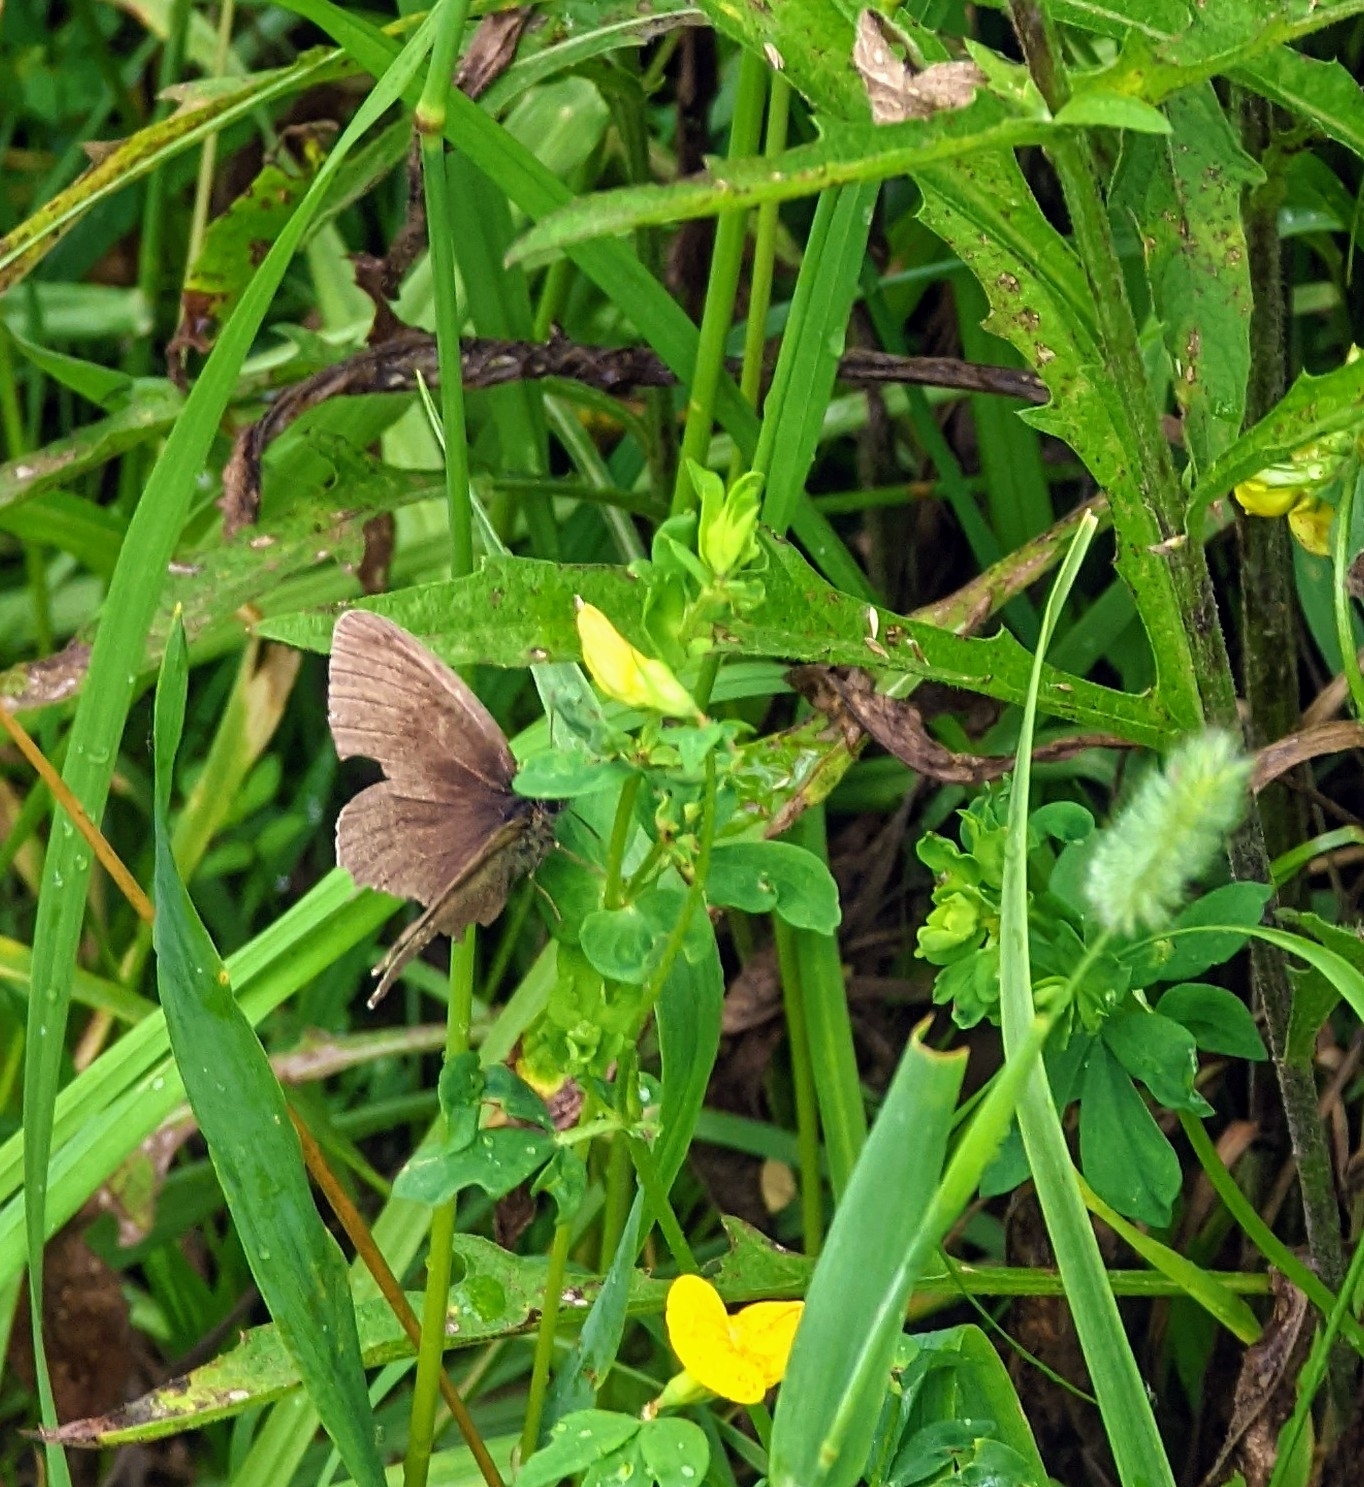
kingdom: Animalia
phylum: Arthropoda
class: Insecta
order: Lepidoptera
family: Nymphalidae
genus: Aphantopus
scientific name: Aphantopus hyperantus
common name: Ringlet
